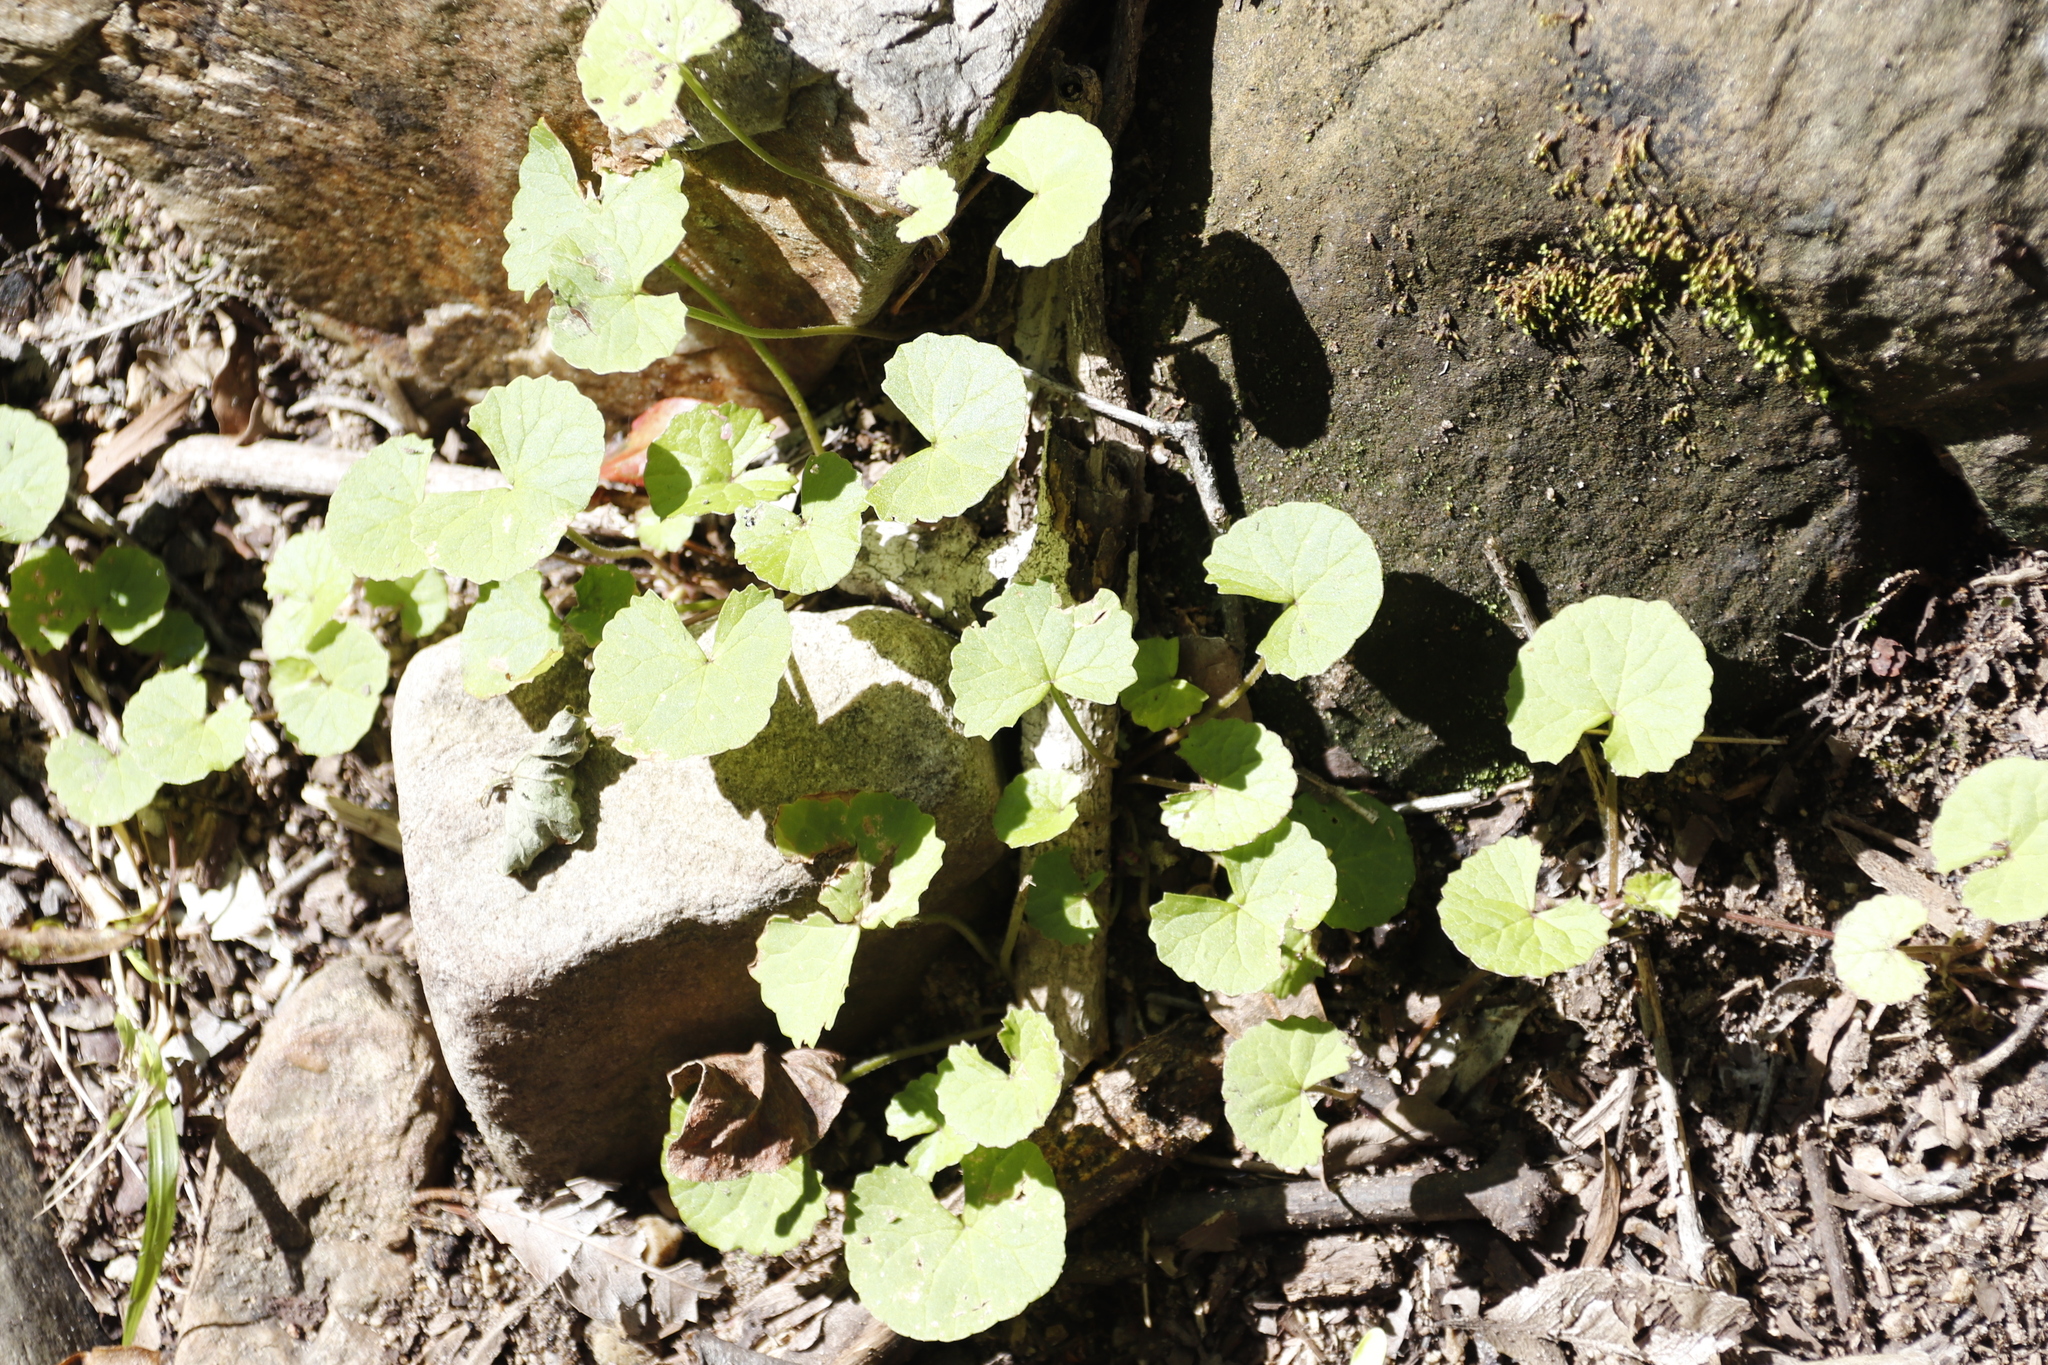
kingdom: Plantae
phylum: Tracheophyta
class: Magnoliopsida
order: Apiales
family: Apiaceae
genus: Centella
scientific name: Centella asiatica
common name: Spadeleaf
